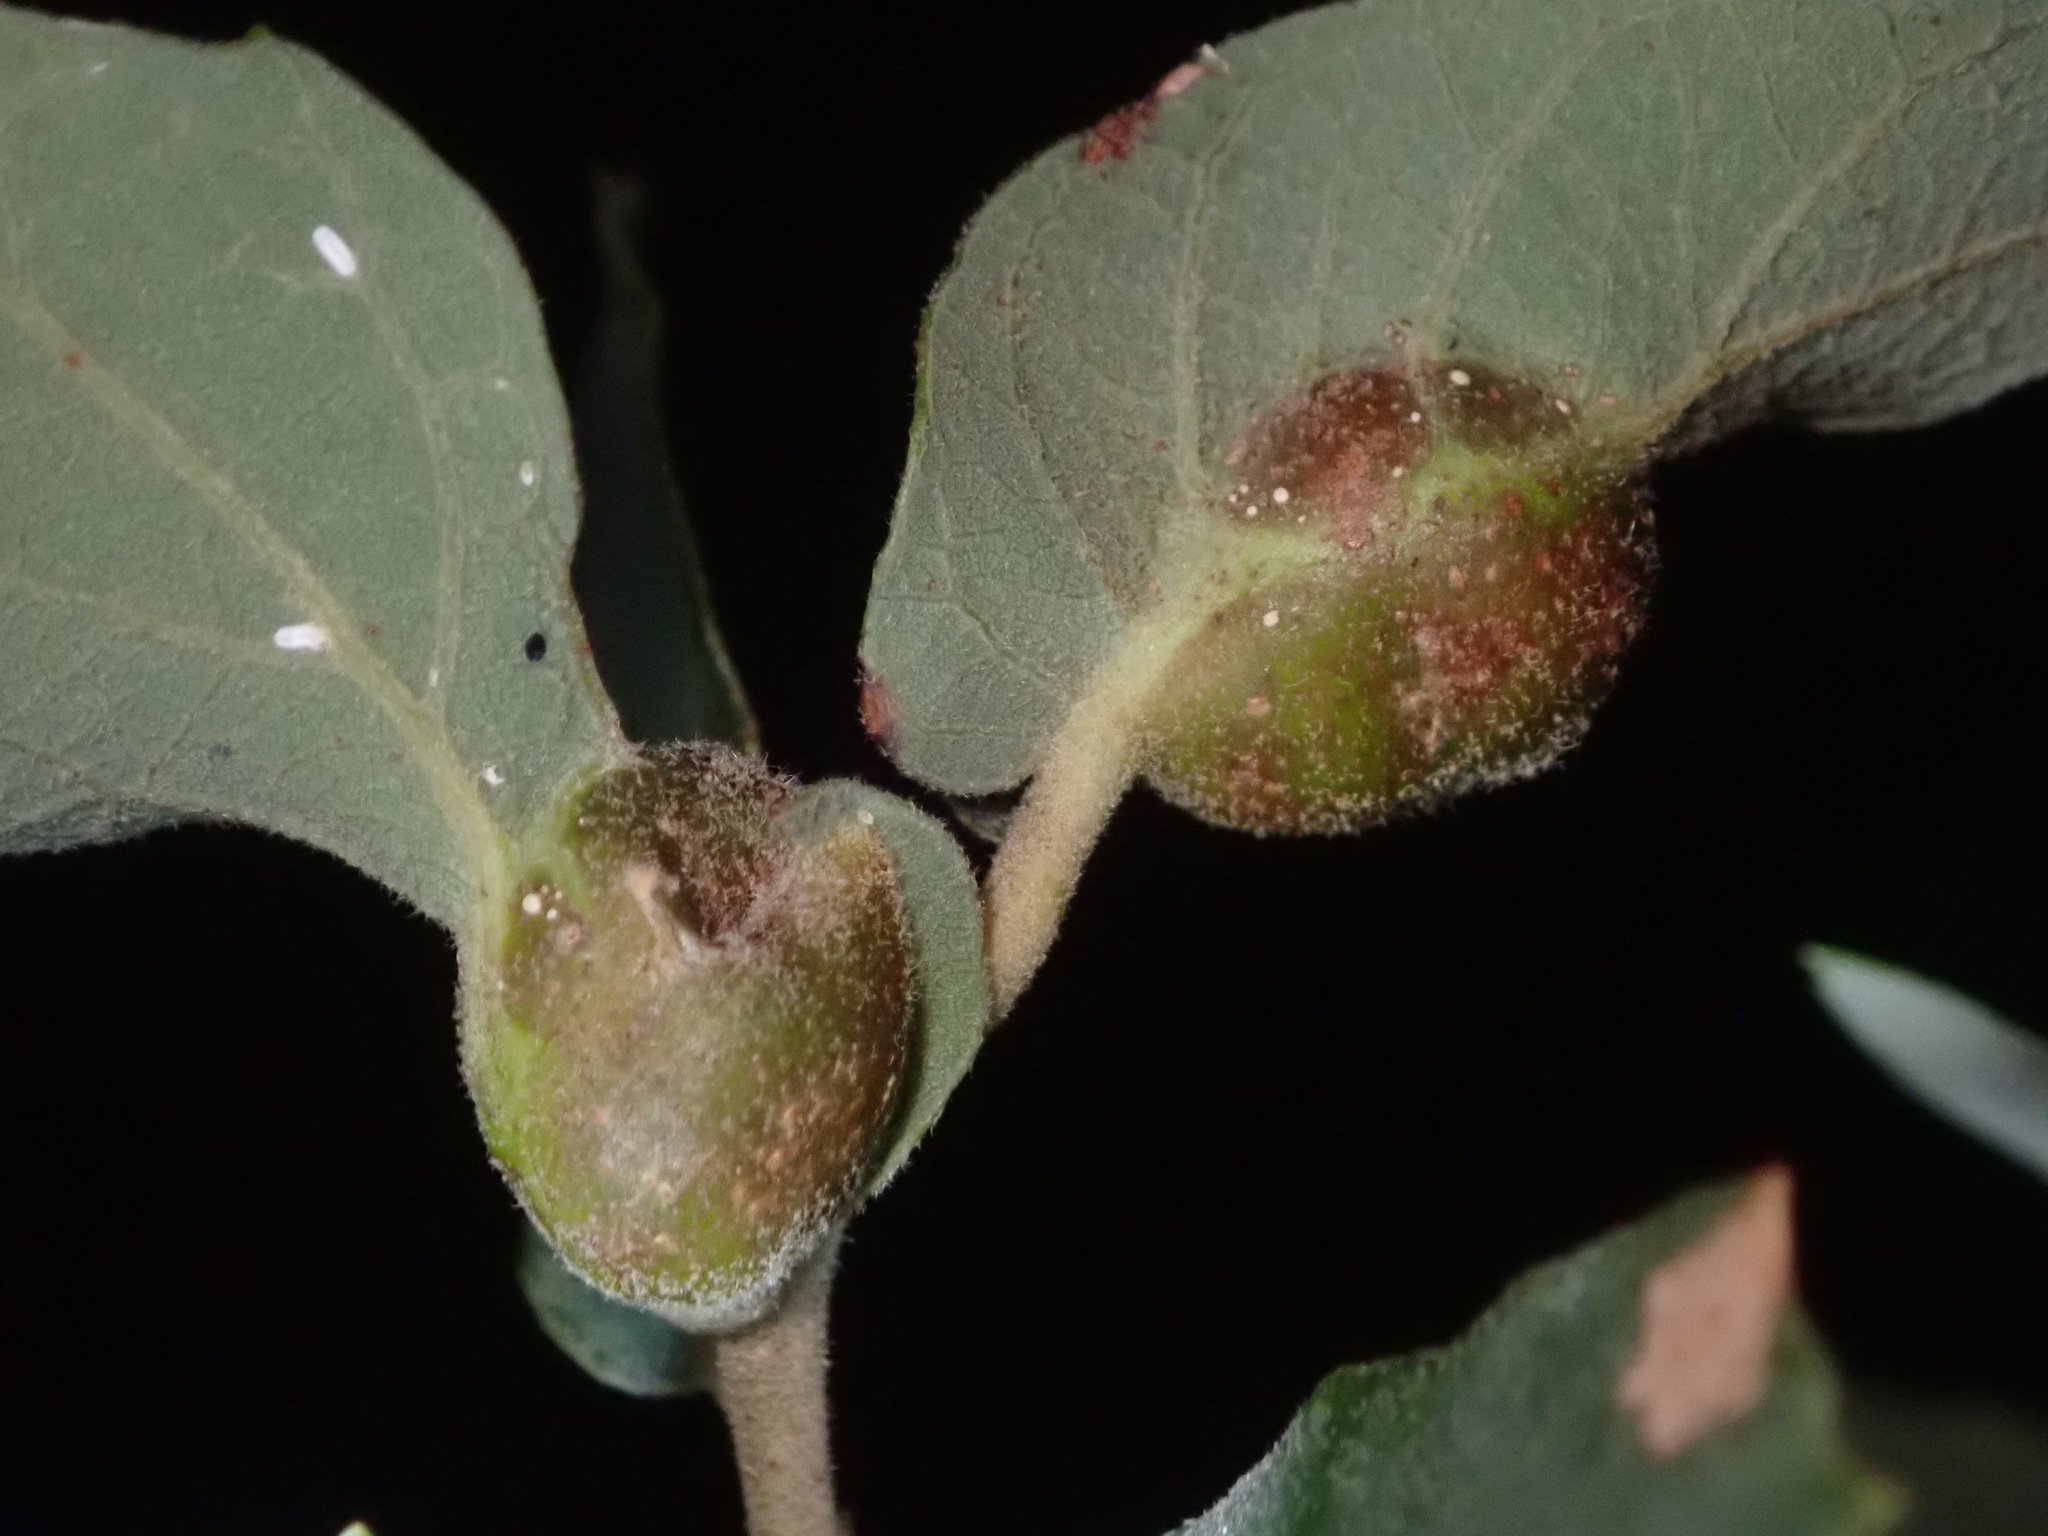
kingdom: Animalia
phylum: Arthropoda
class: Insecta
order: Hymenoptera
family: Cynipidae
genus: Andricus
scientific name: Andricus
